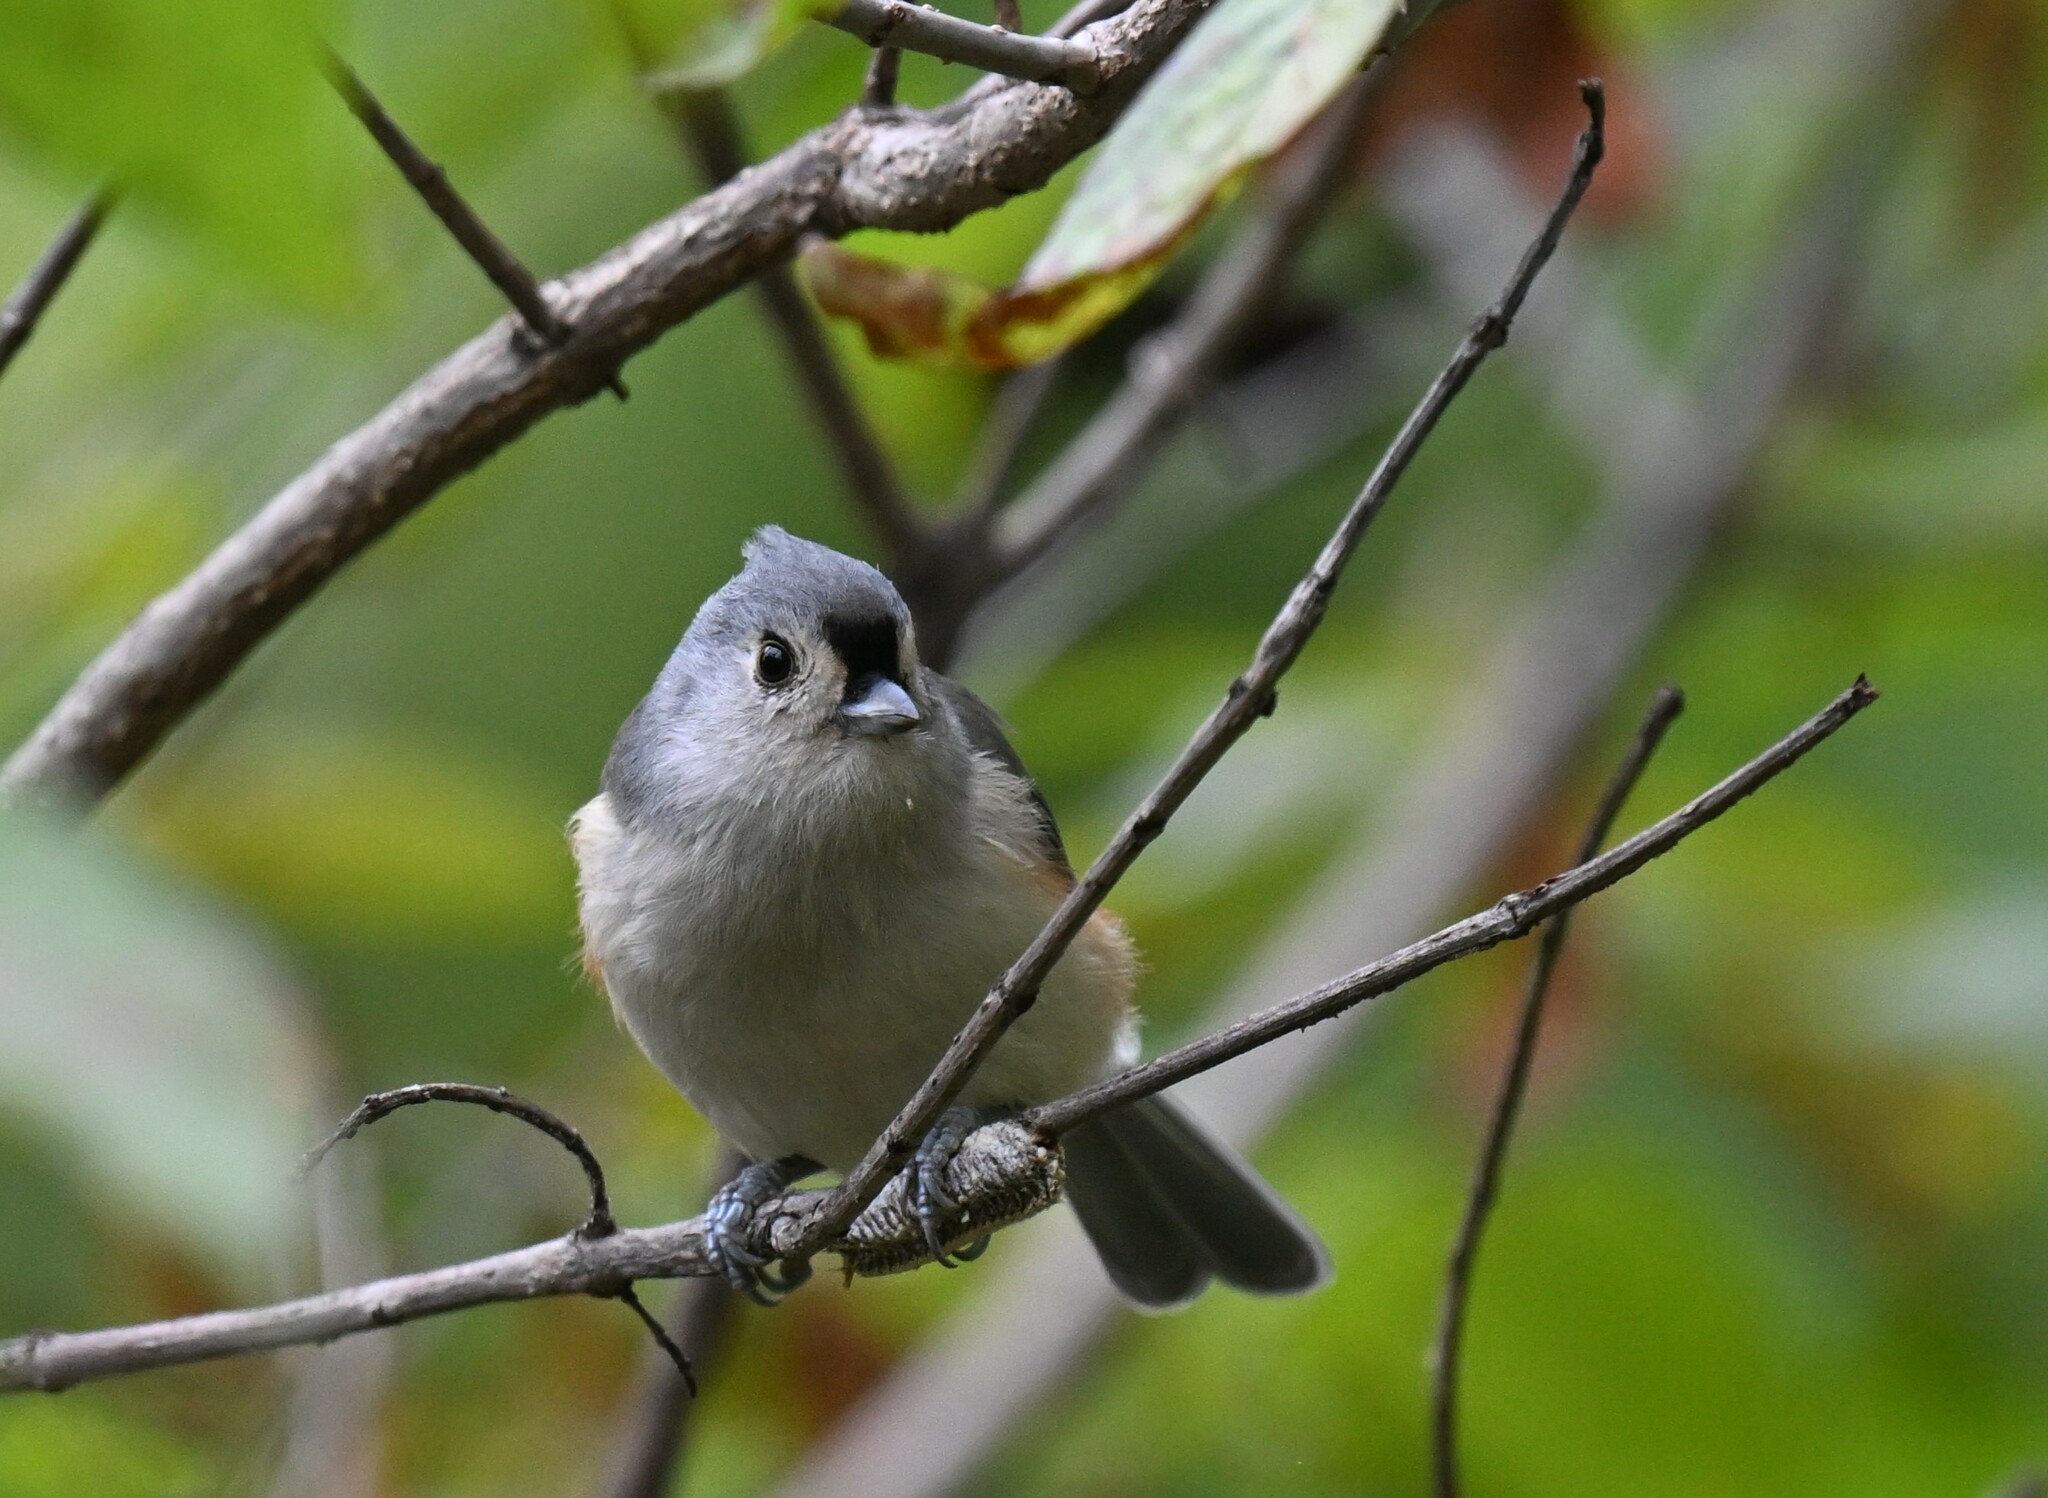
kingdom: Animalia
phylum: Chordata
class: Aves
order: Passeriformes
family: Paridae
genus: Baeolophus
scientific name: Baeolophus bicolor
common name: Tufted titmouse
